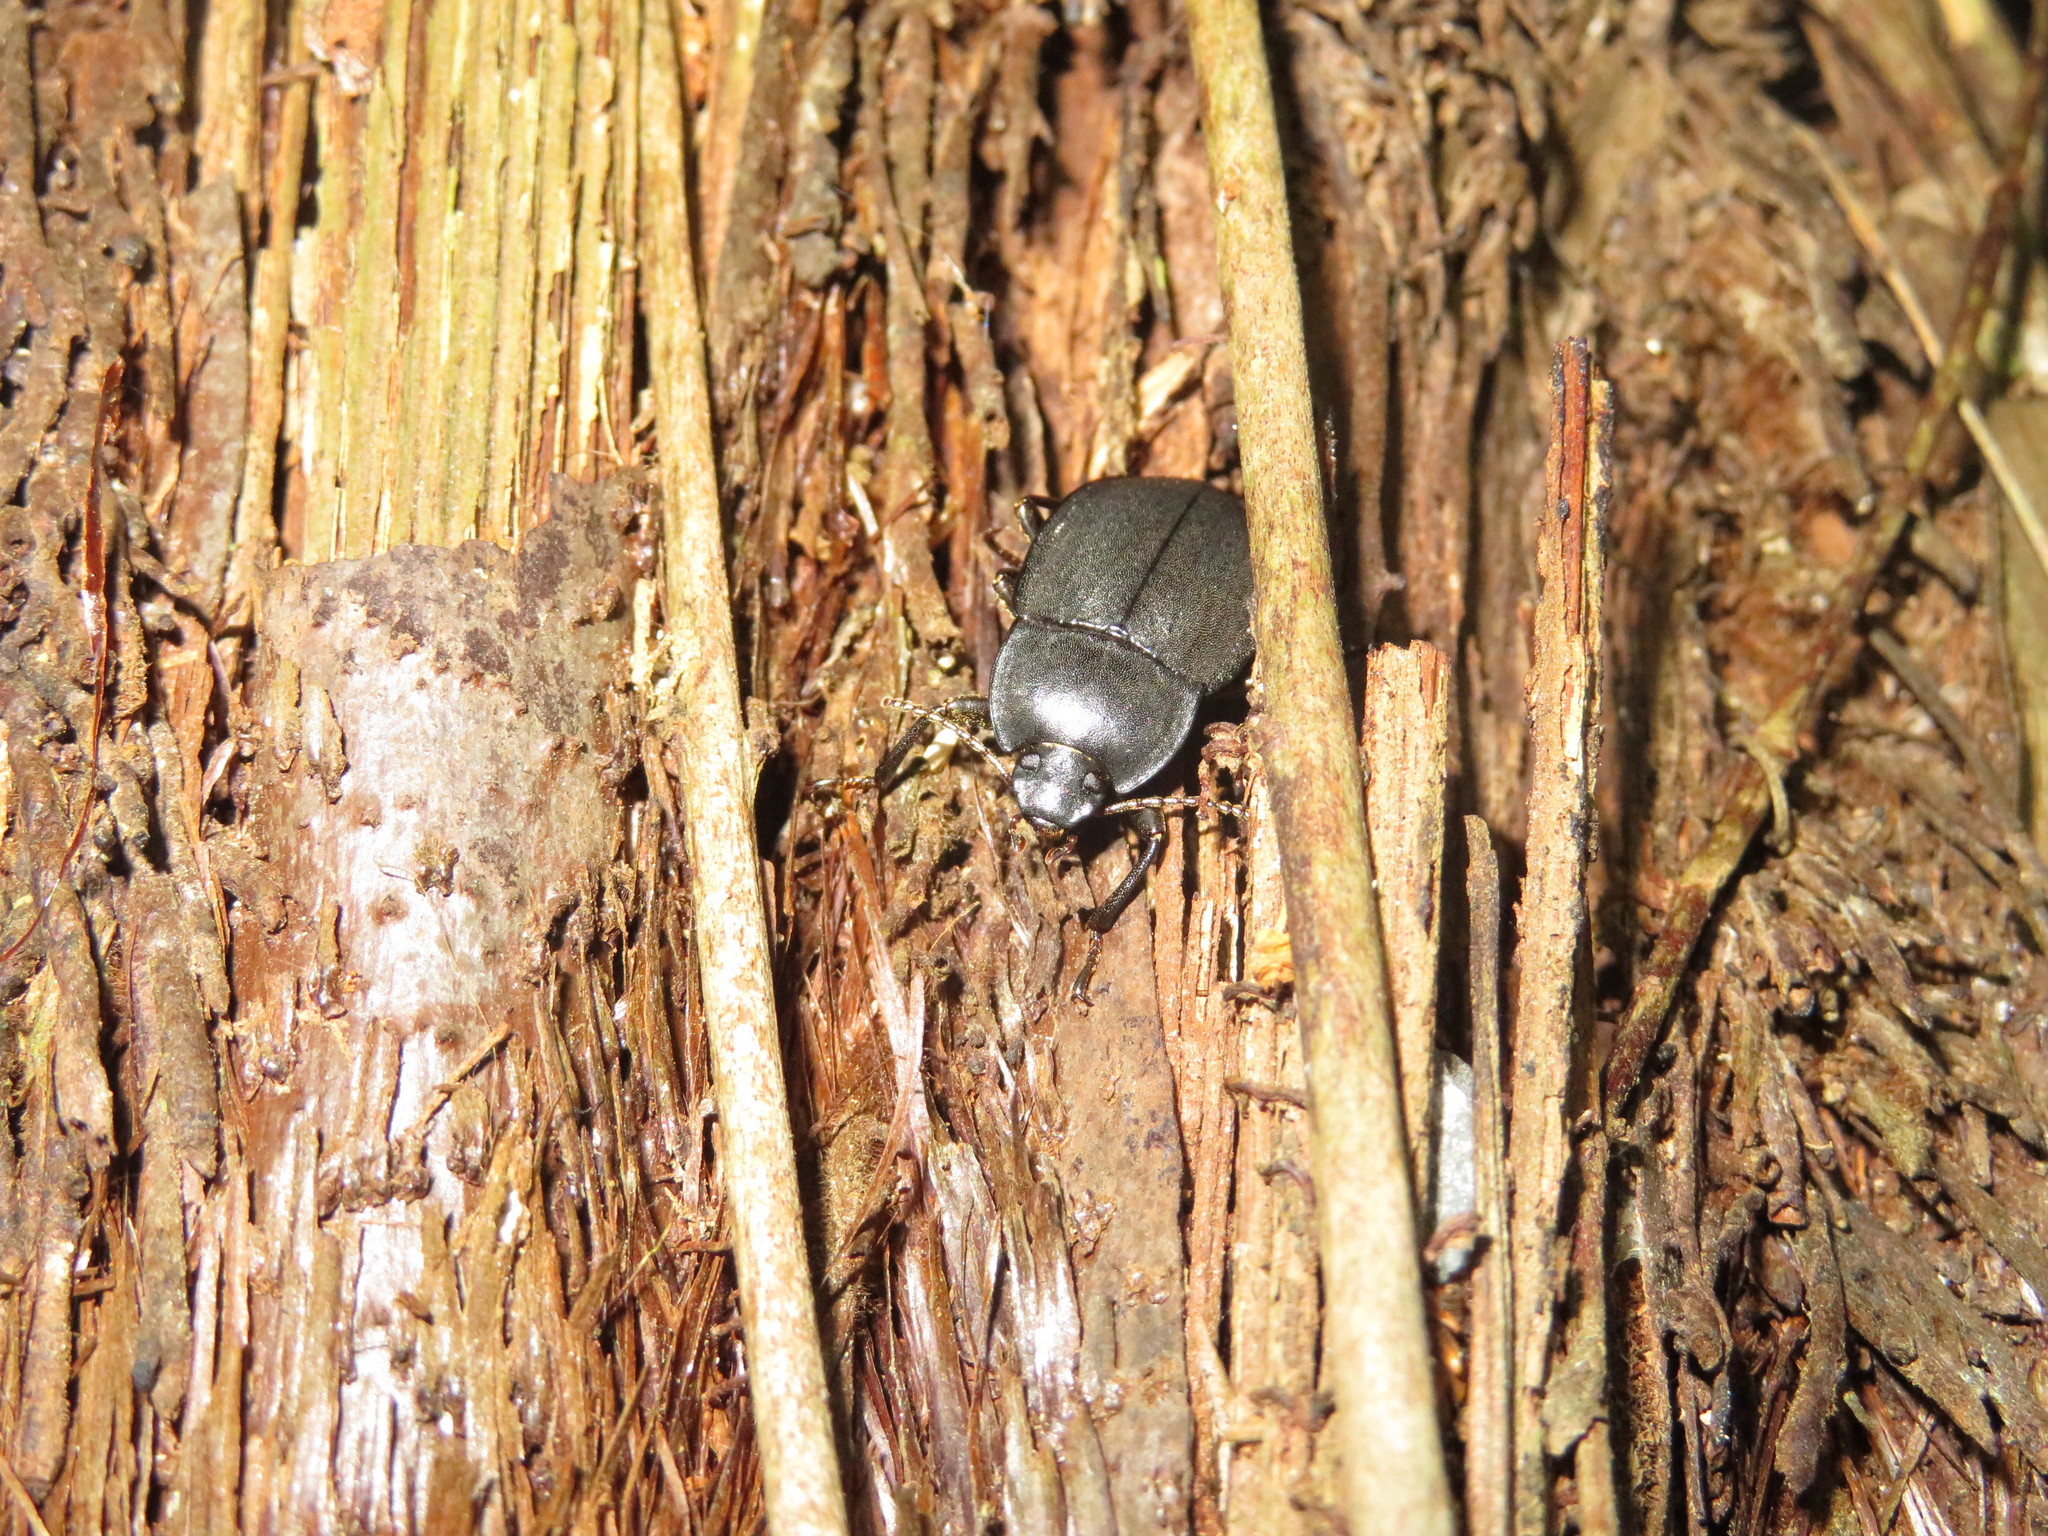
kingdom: Animalia
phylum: Arthropoda
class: Insecta
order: Coleoptera
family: Tenebrionidae
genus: Mimopeus
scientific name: Mimopeus
